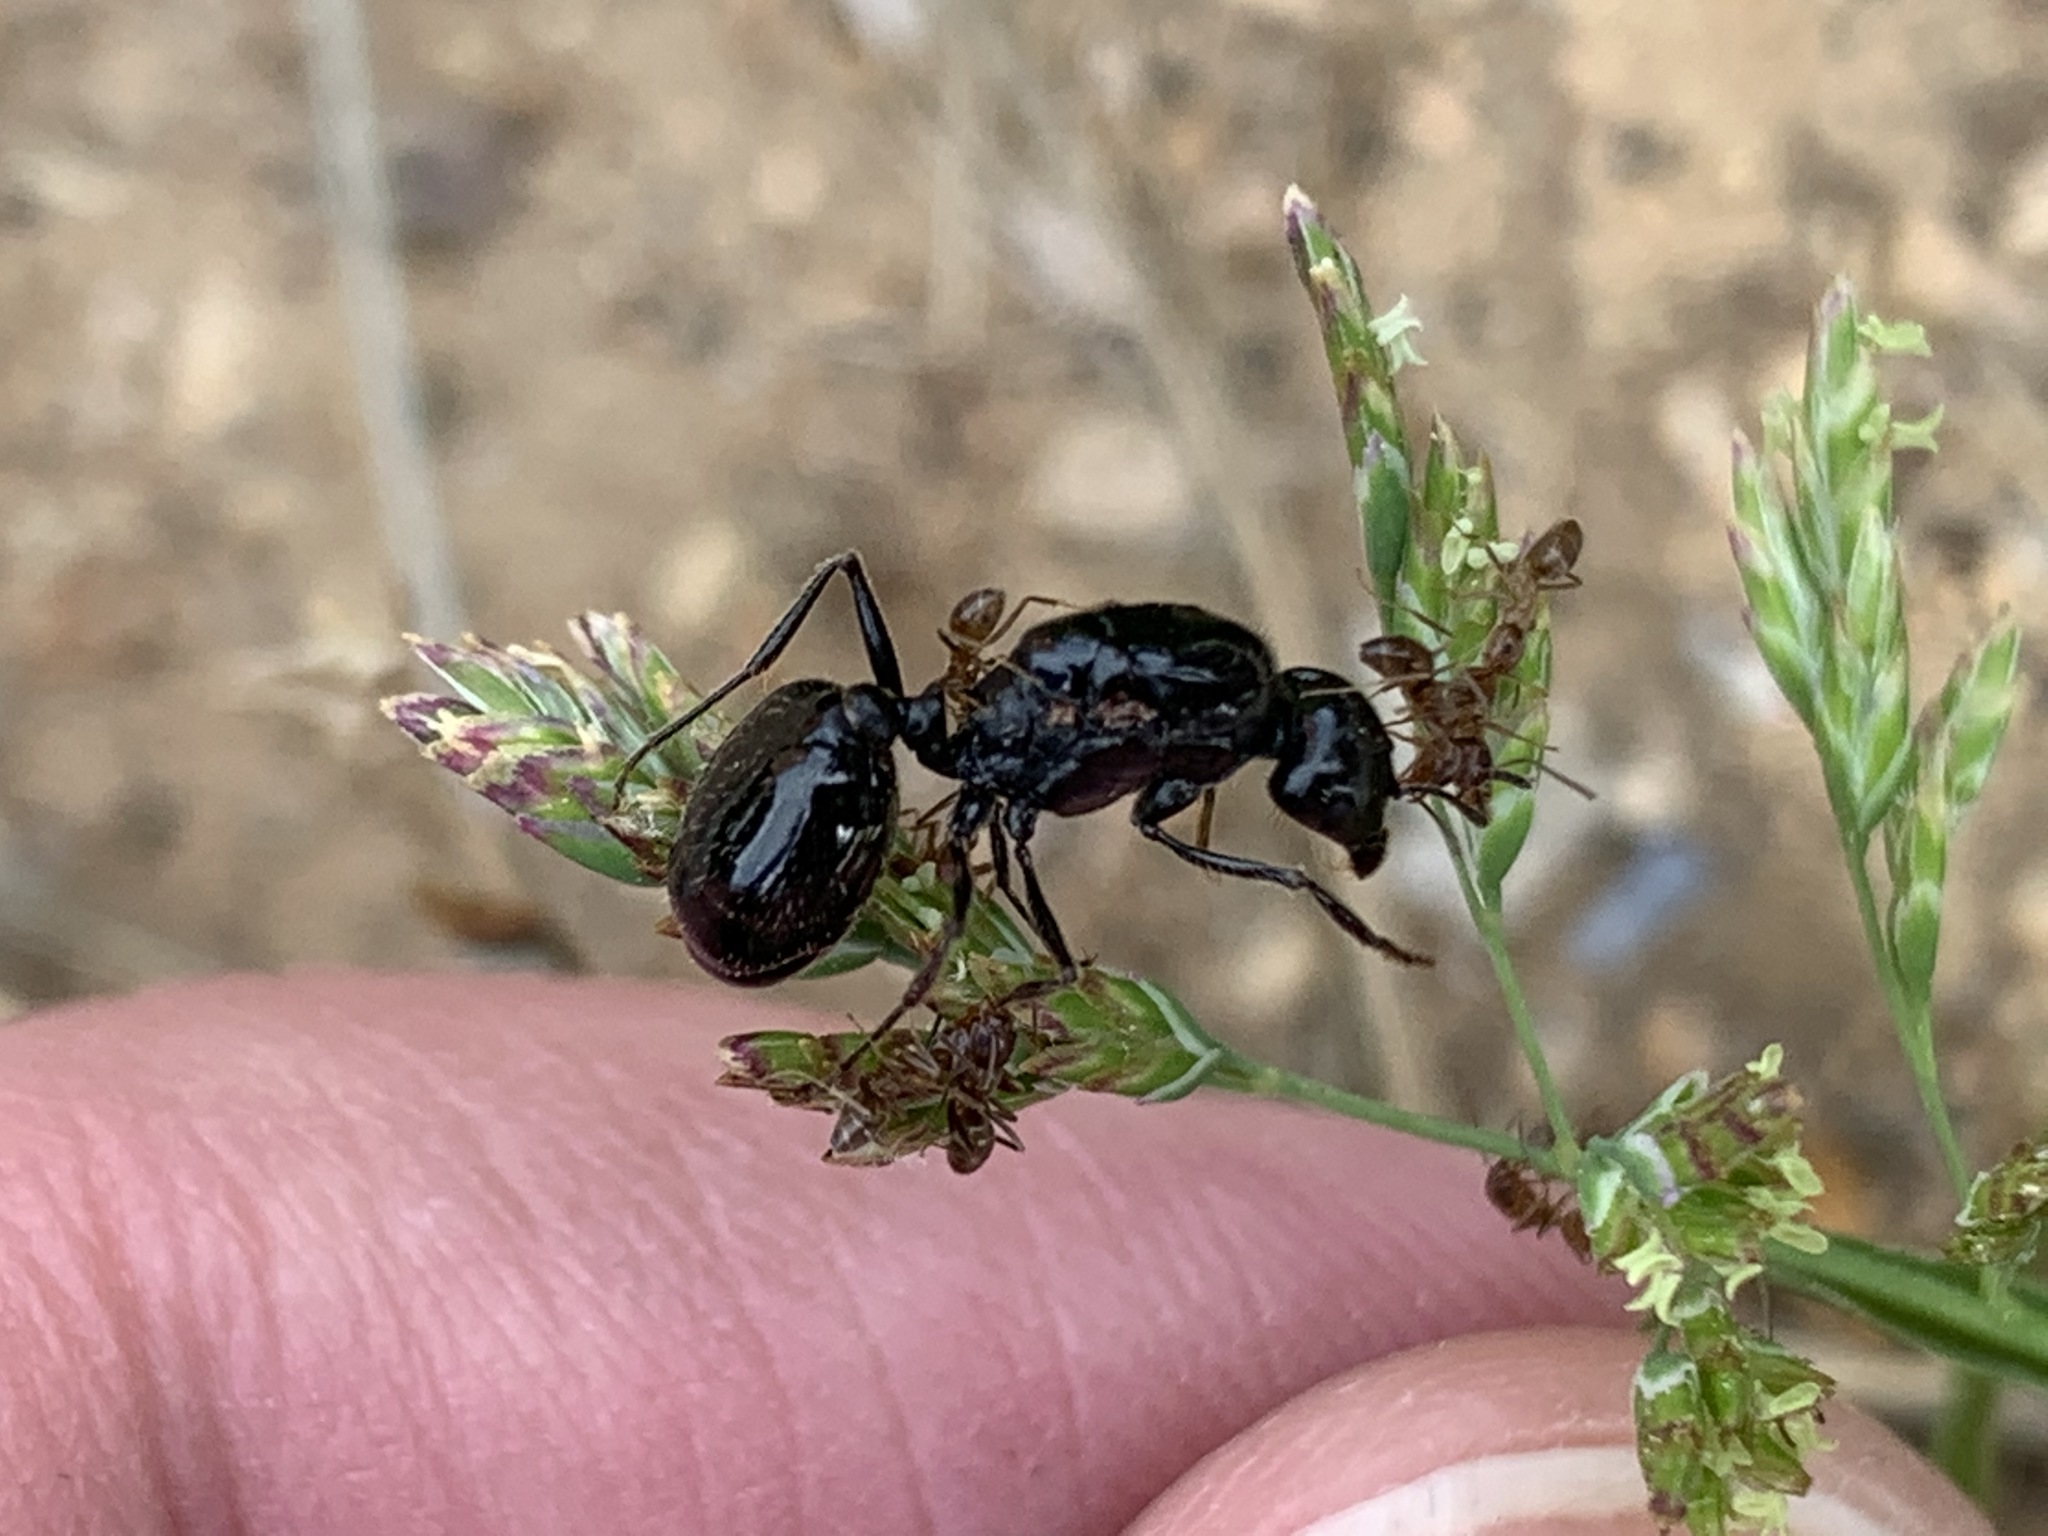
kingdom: Animalia
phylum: Arthropoda
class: Insecta
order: Hymenoptera
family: Formicidae
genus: Messor
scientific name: Messor pergandei
